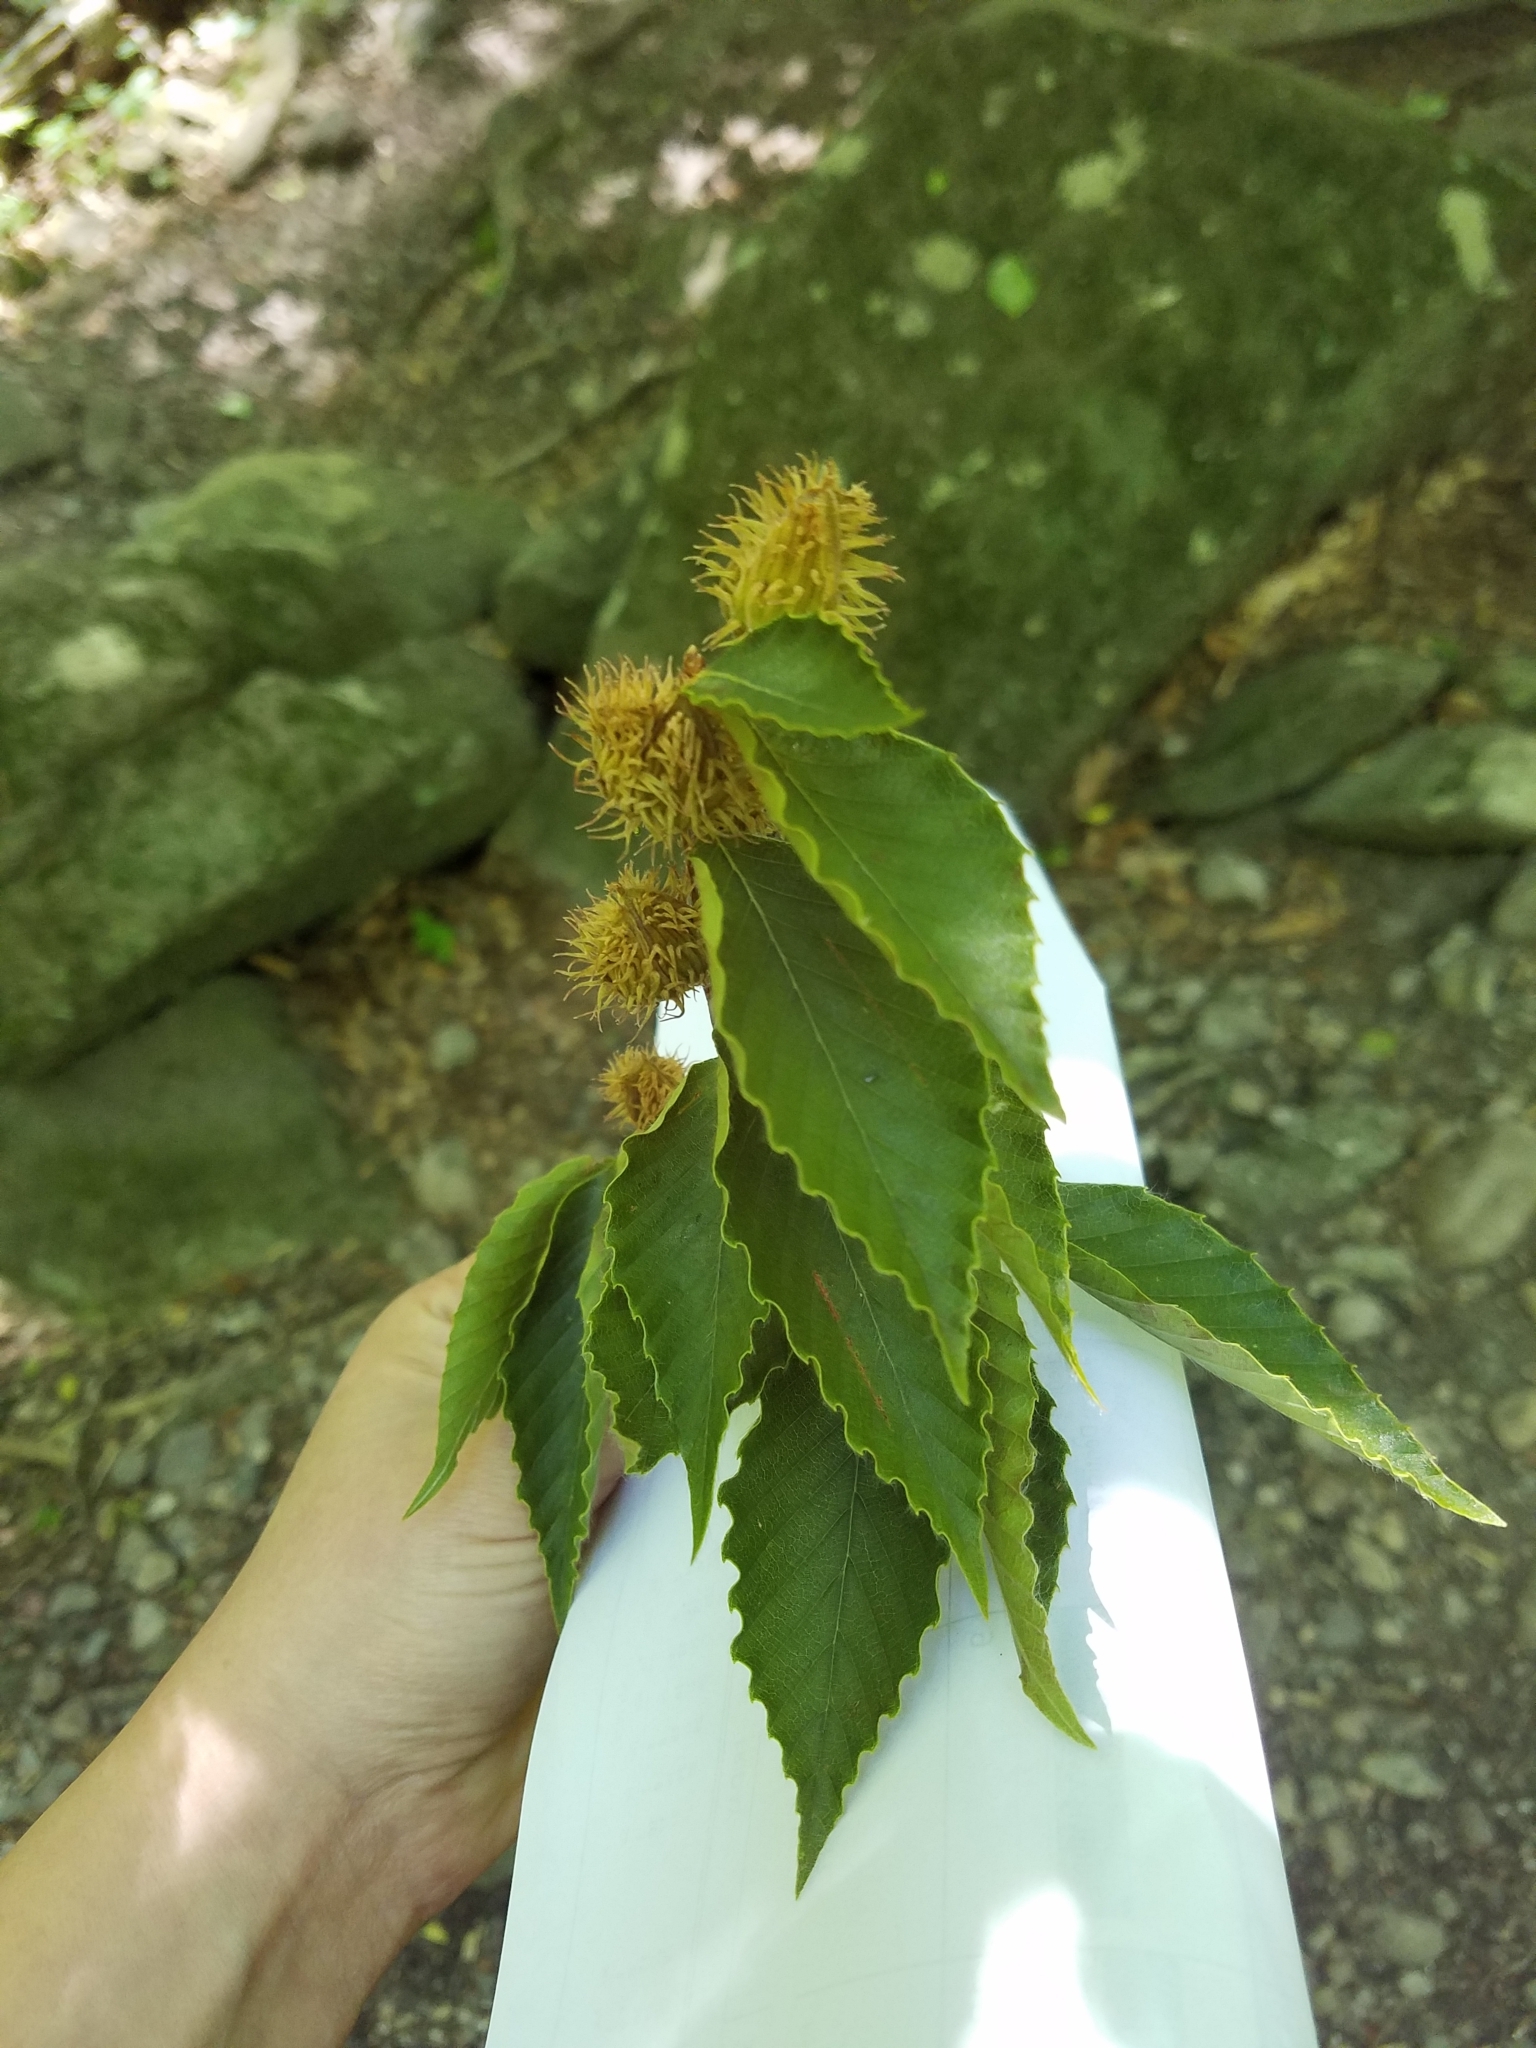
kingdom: Plantae
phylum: Tracheophyta
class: Magnoliopsida
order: Fagales
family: Fagaceae
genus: Fagus
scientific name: Fagus grandifolia
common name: American beech
